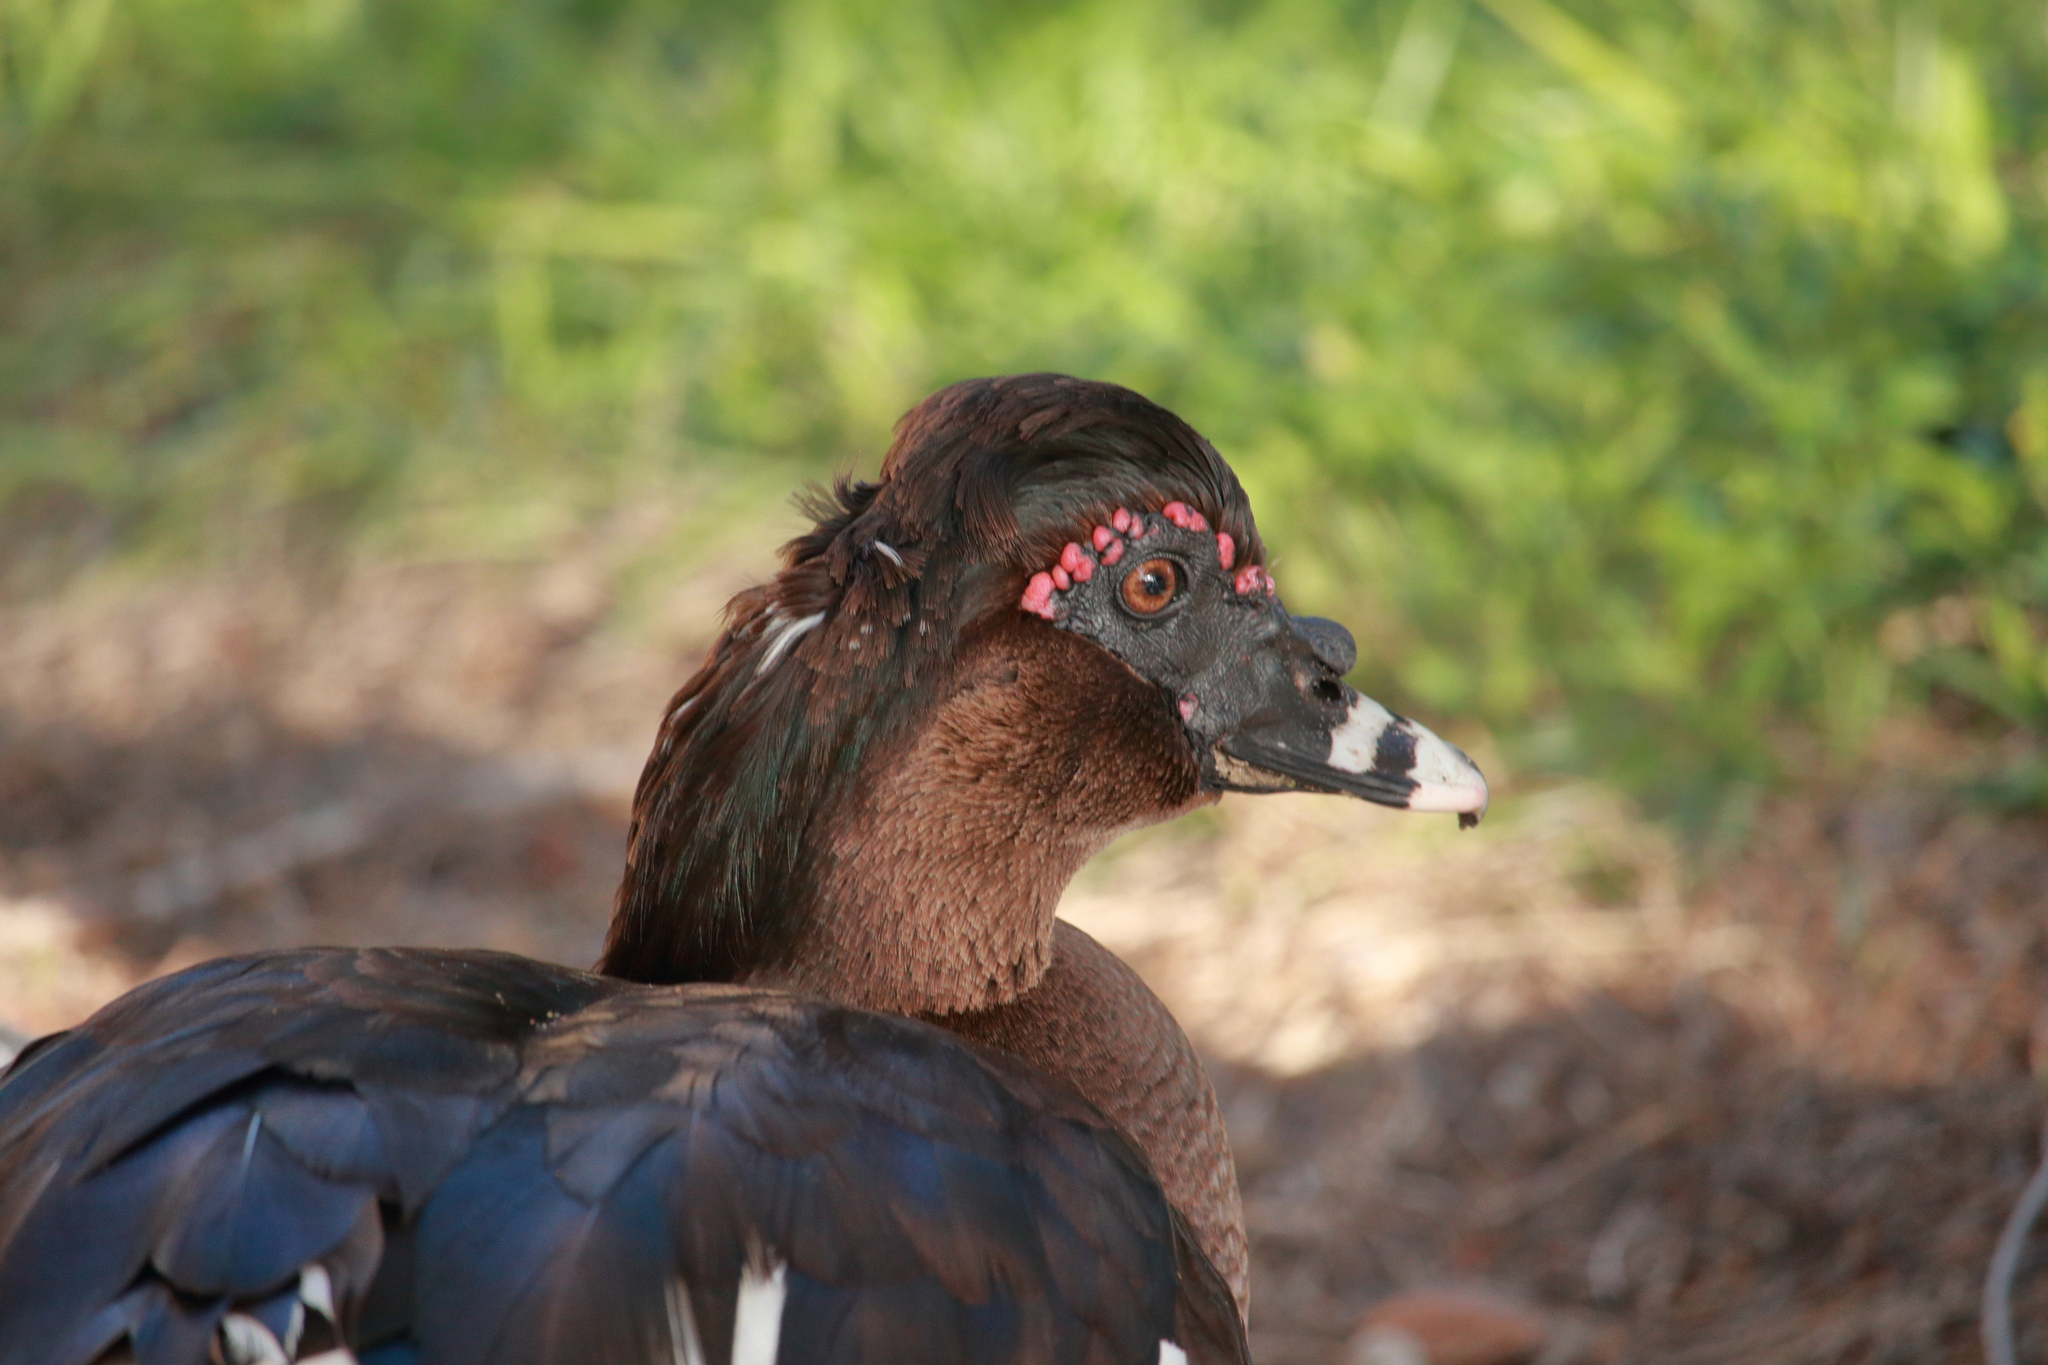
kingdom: Animalia
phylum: Chordata
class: Aves
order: Anseriformes
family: Anatidae
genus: Cairina
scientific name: Cairina moschata
